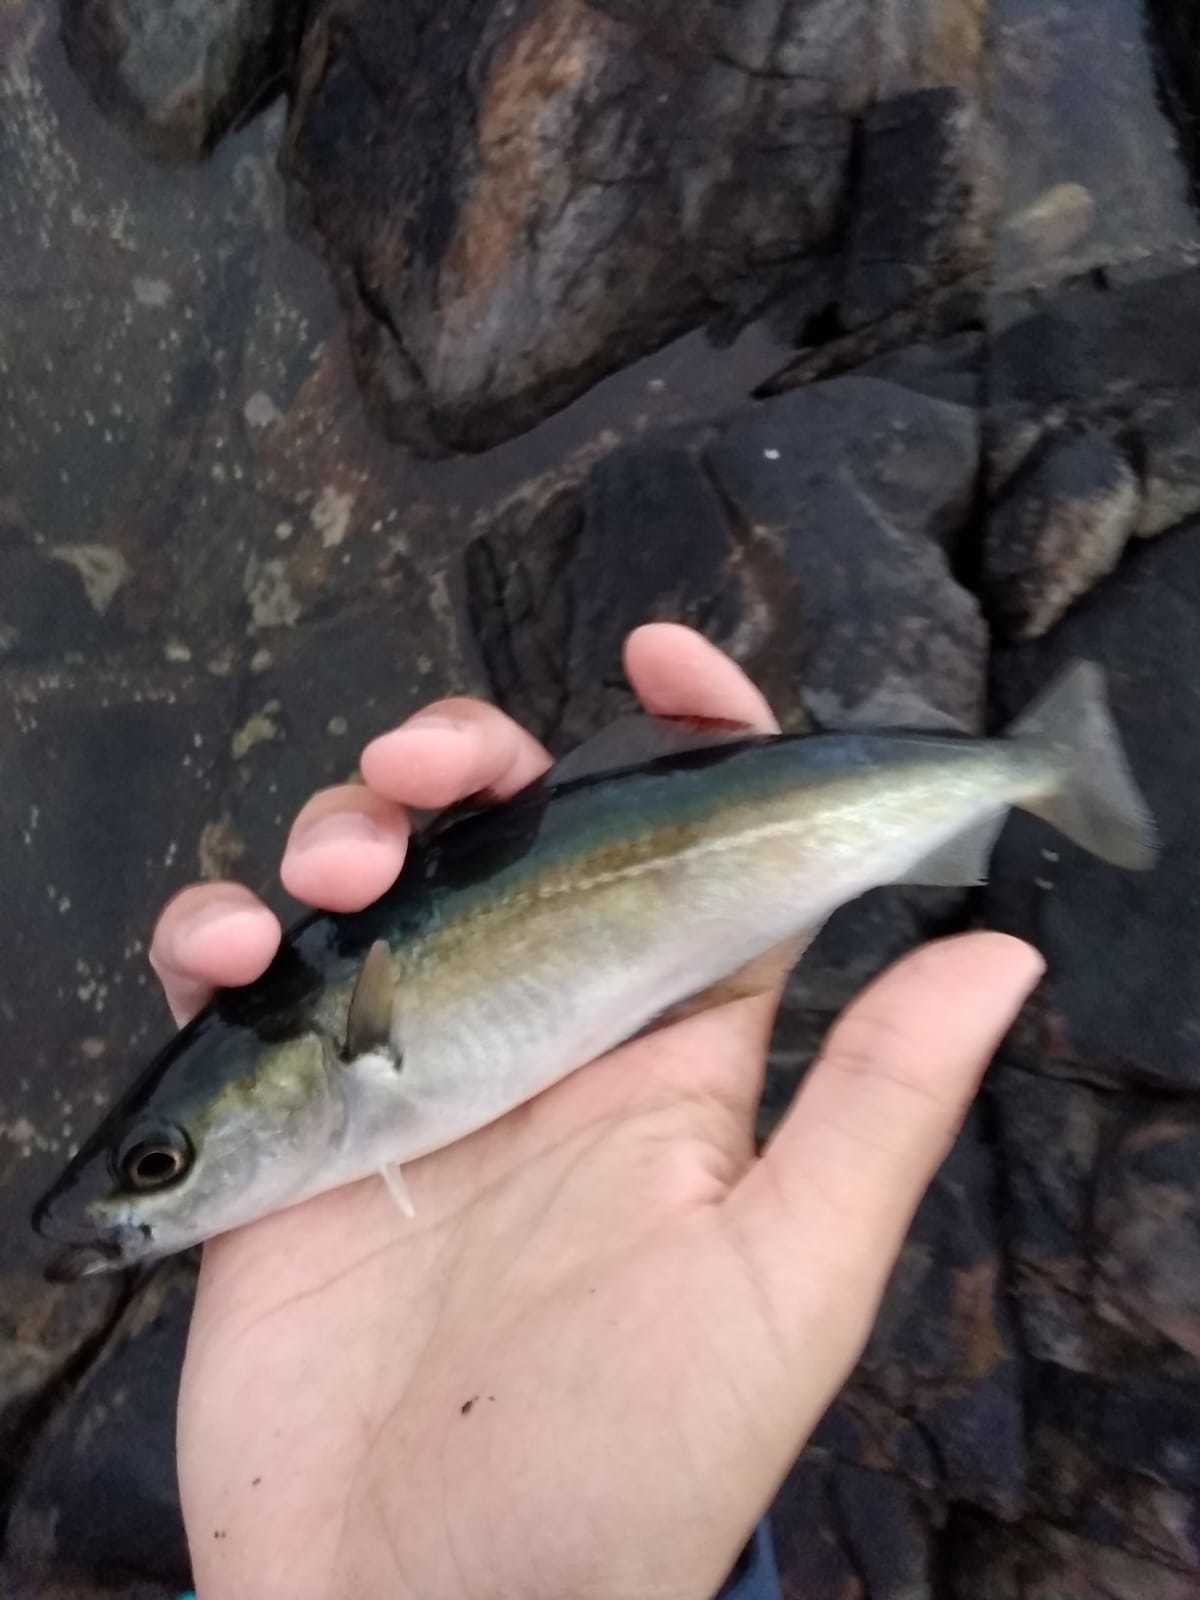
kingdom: Animalia
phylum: Chordata
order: Gadiformes
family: Gadidae
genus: Pollachius
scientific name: Pollachius virens
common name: Saithe
